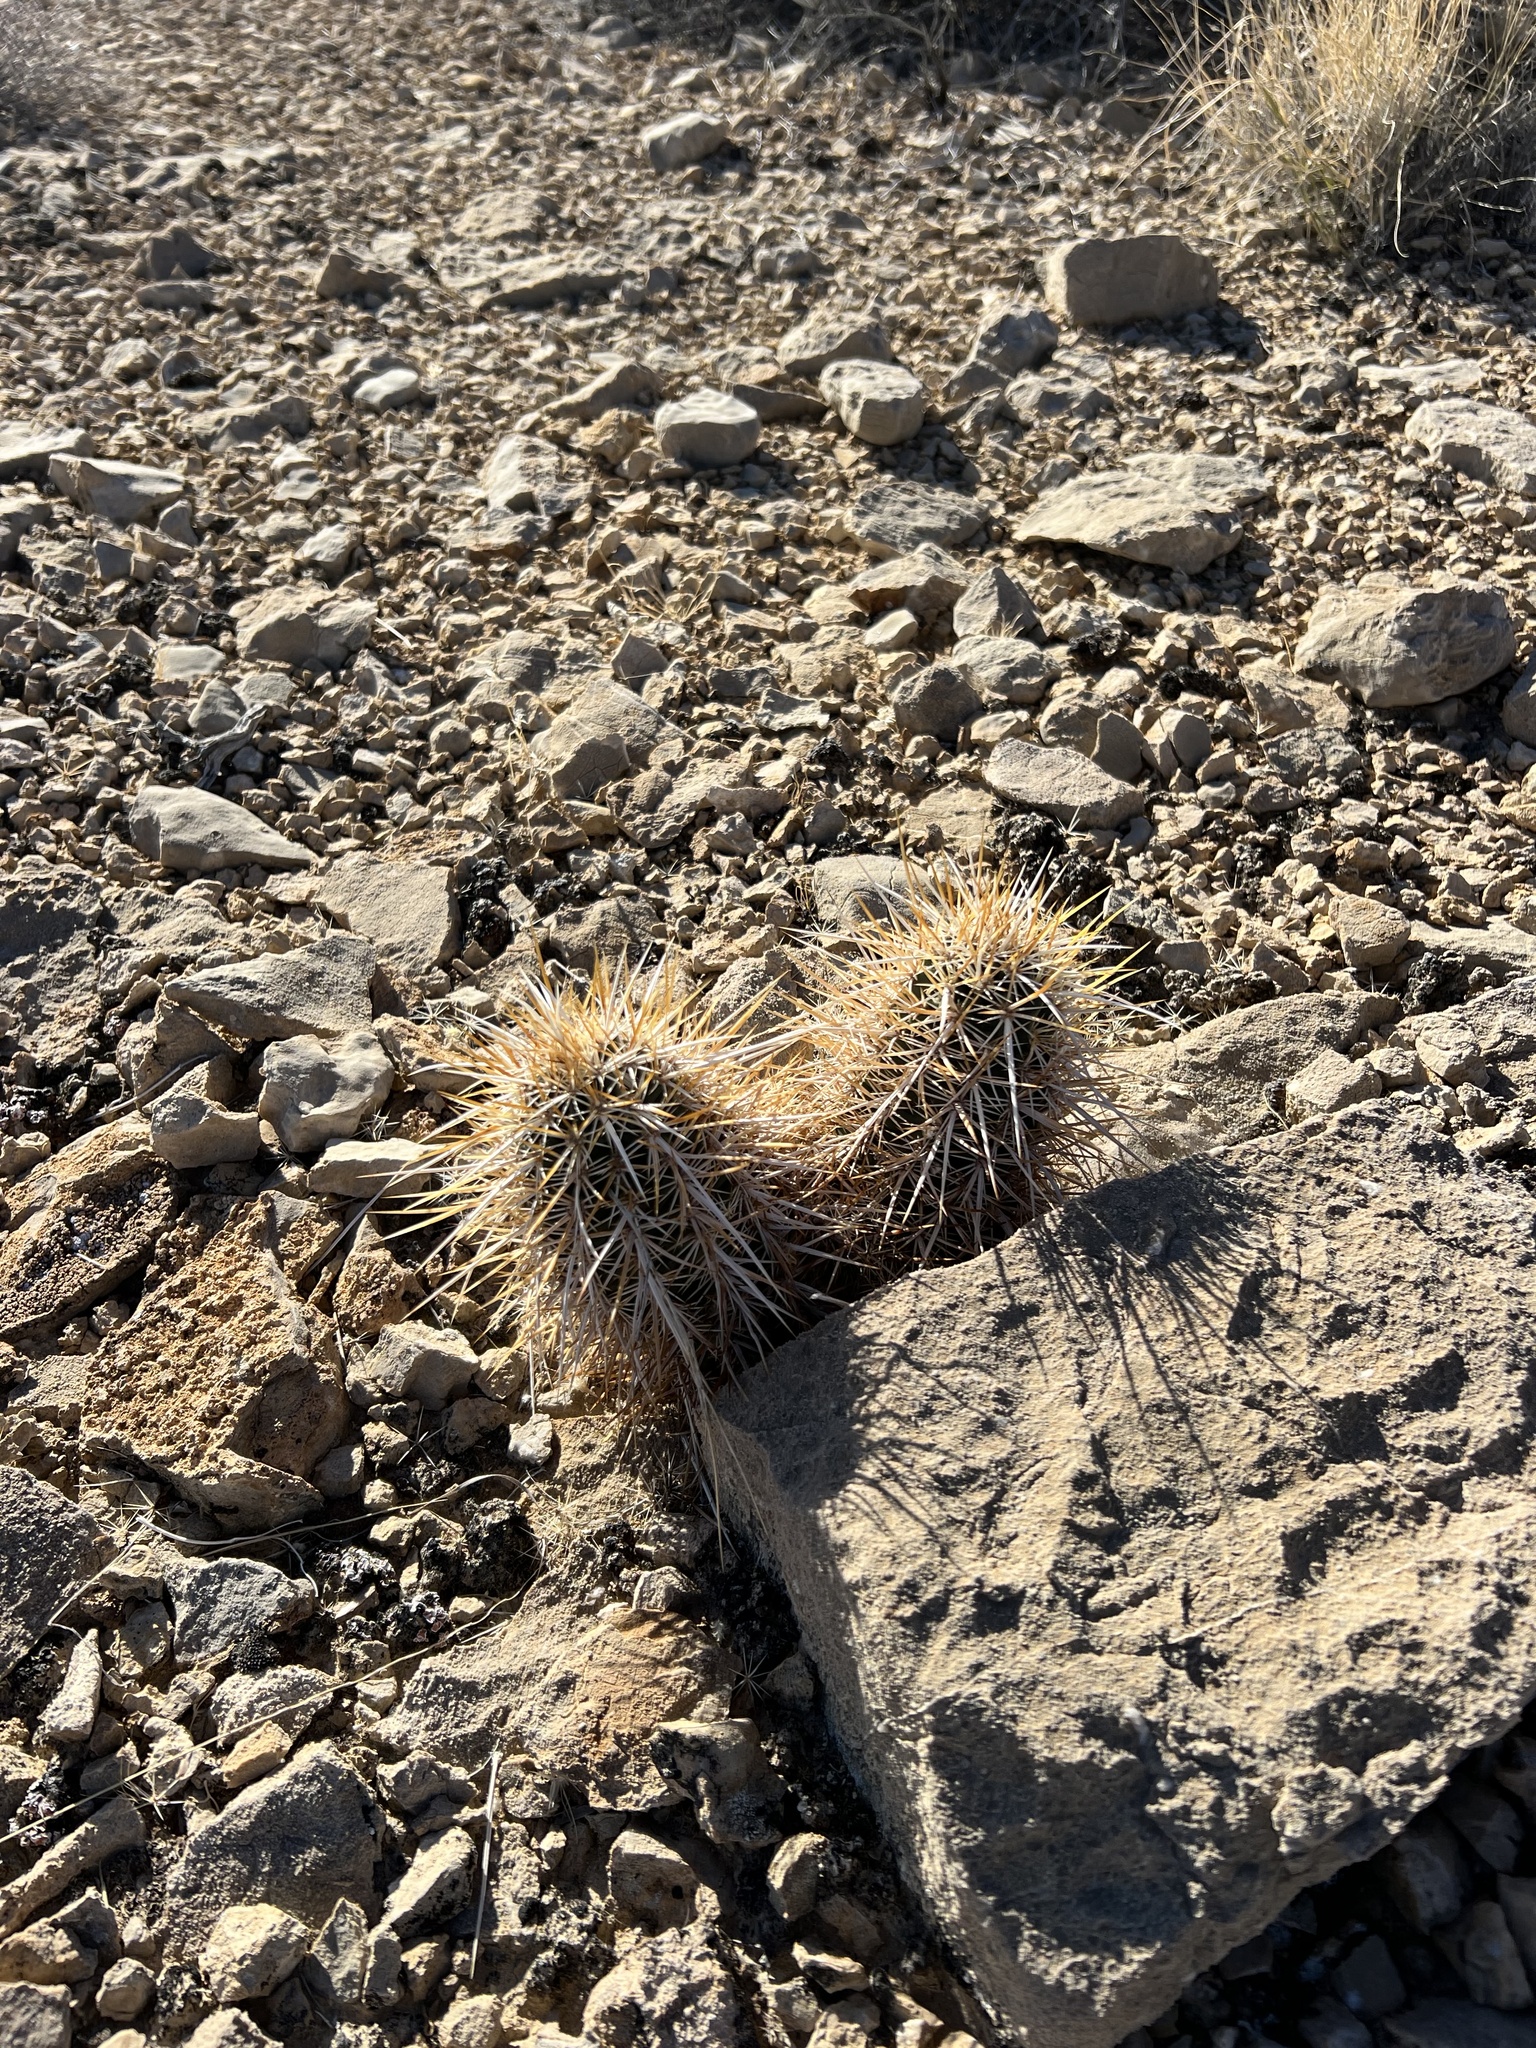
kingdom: Plantae
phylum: Tracheophyta
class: Magnoliopsida
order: Caryophyllales
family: Cactaceae
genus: Echinocereus
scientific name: Echinocereus engelmannii
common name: Engelmann's hedgehog cactus
